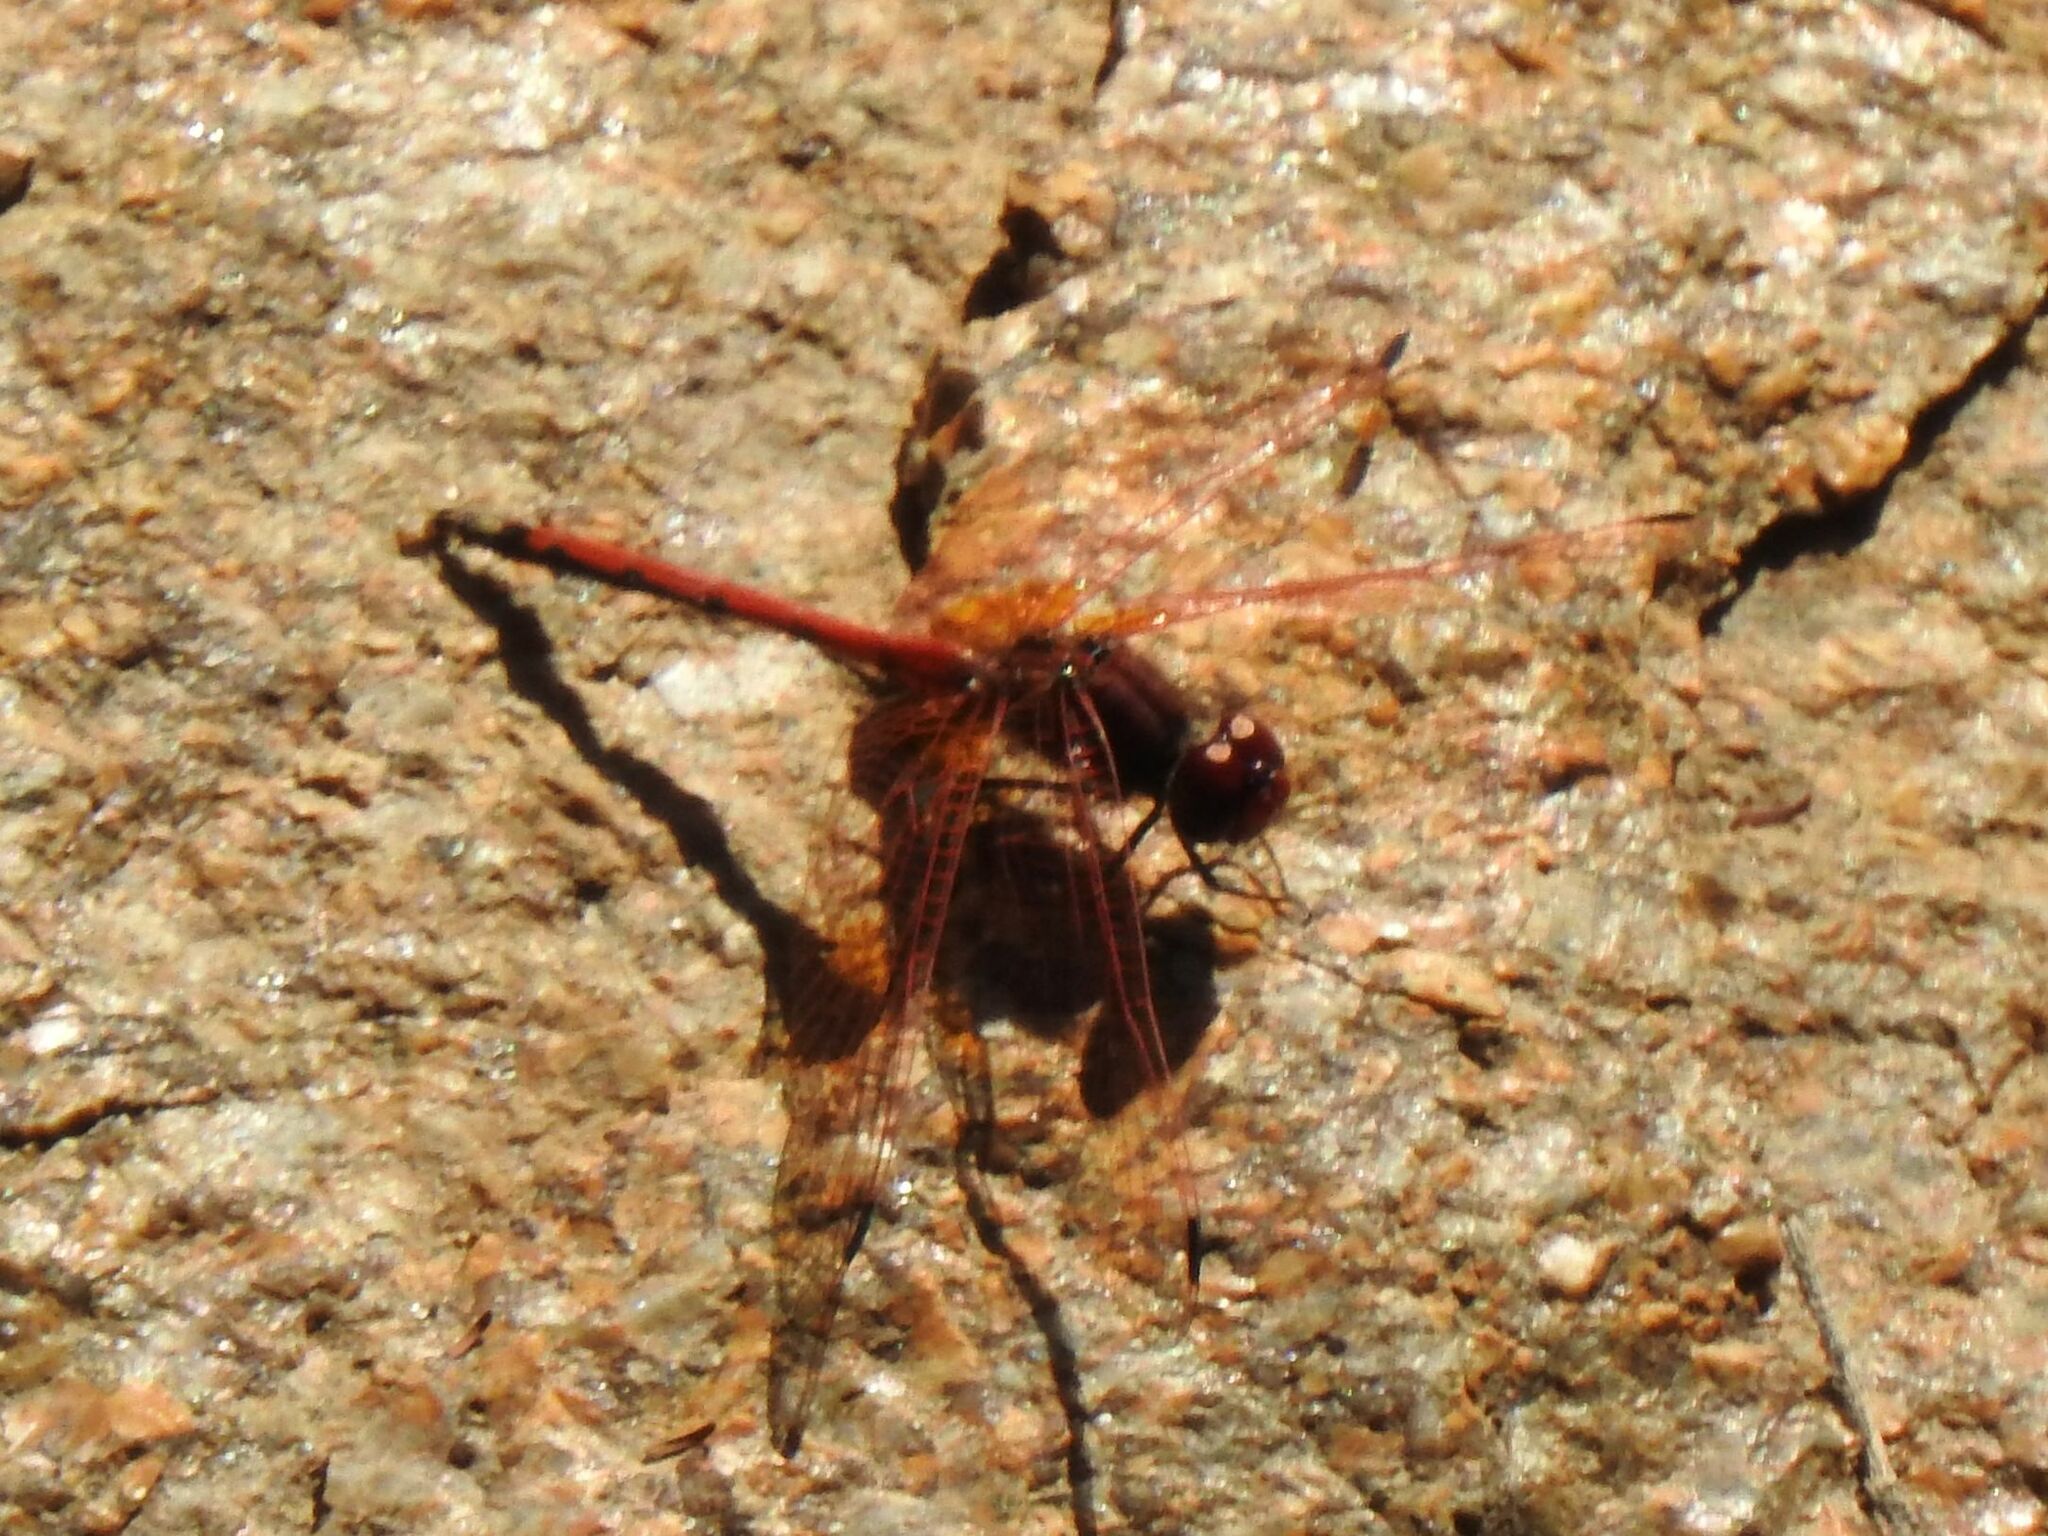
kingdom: Animalia
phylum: Arthropoda
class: Insecta
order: Odonata
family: Libellulidae
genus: Trithemis
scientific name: Trithemis arteriosa
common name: Red-veined dropwing
